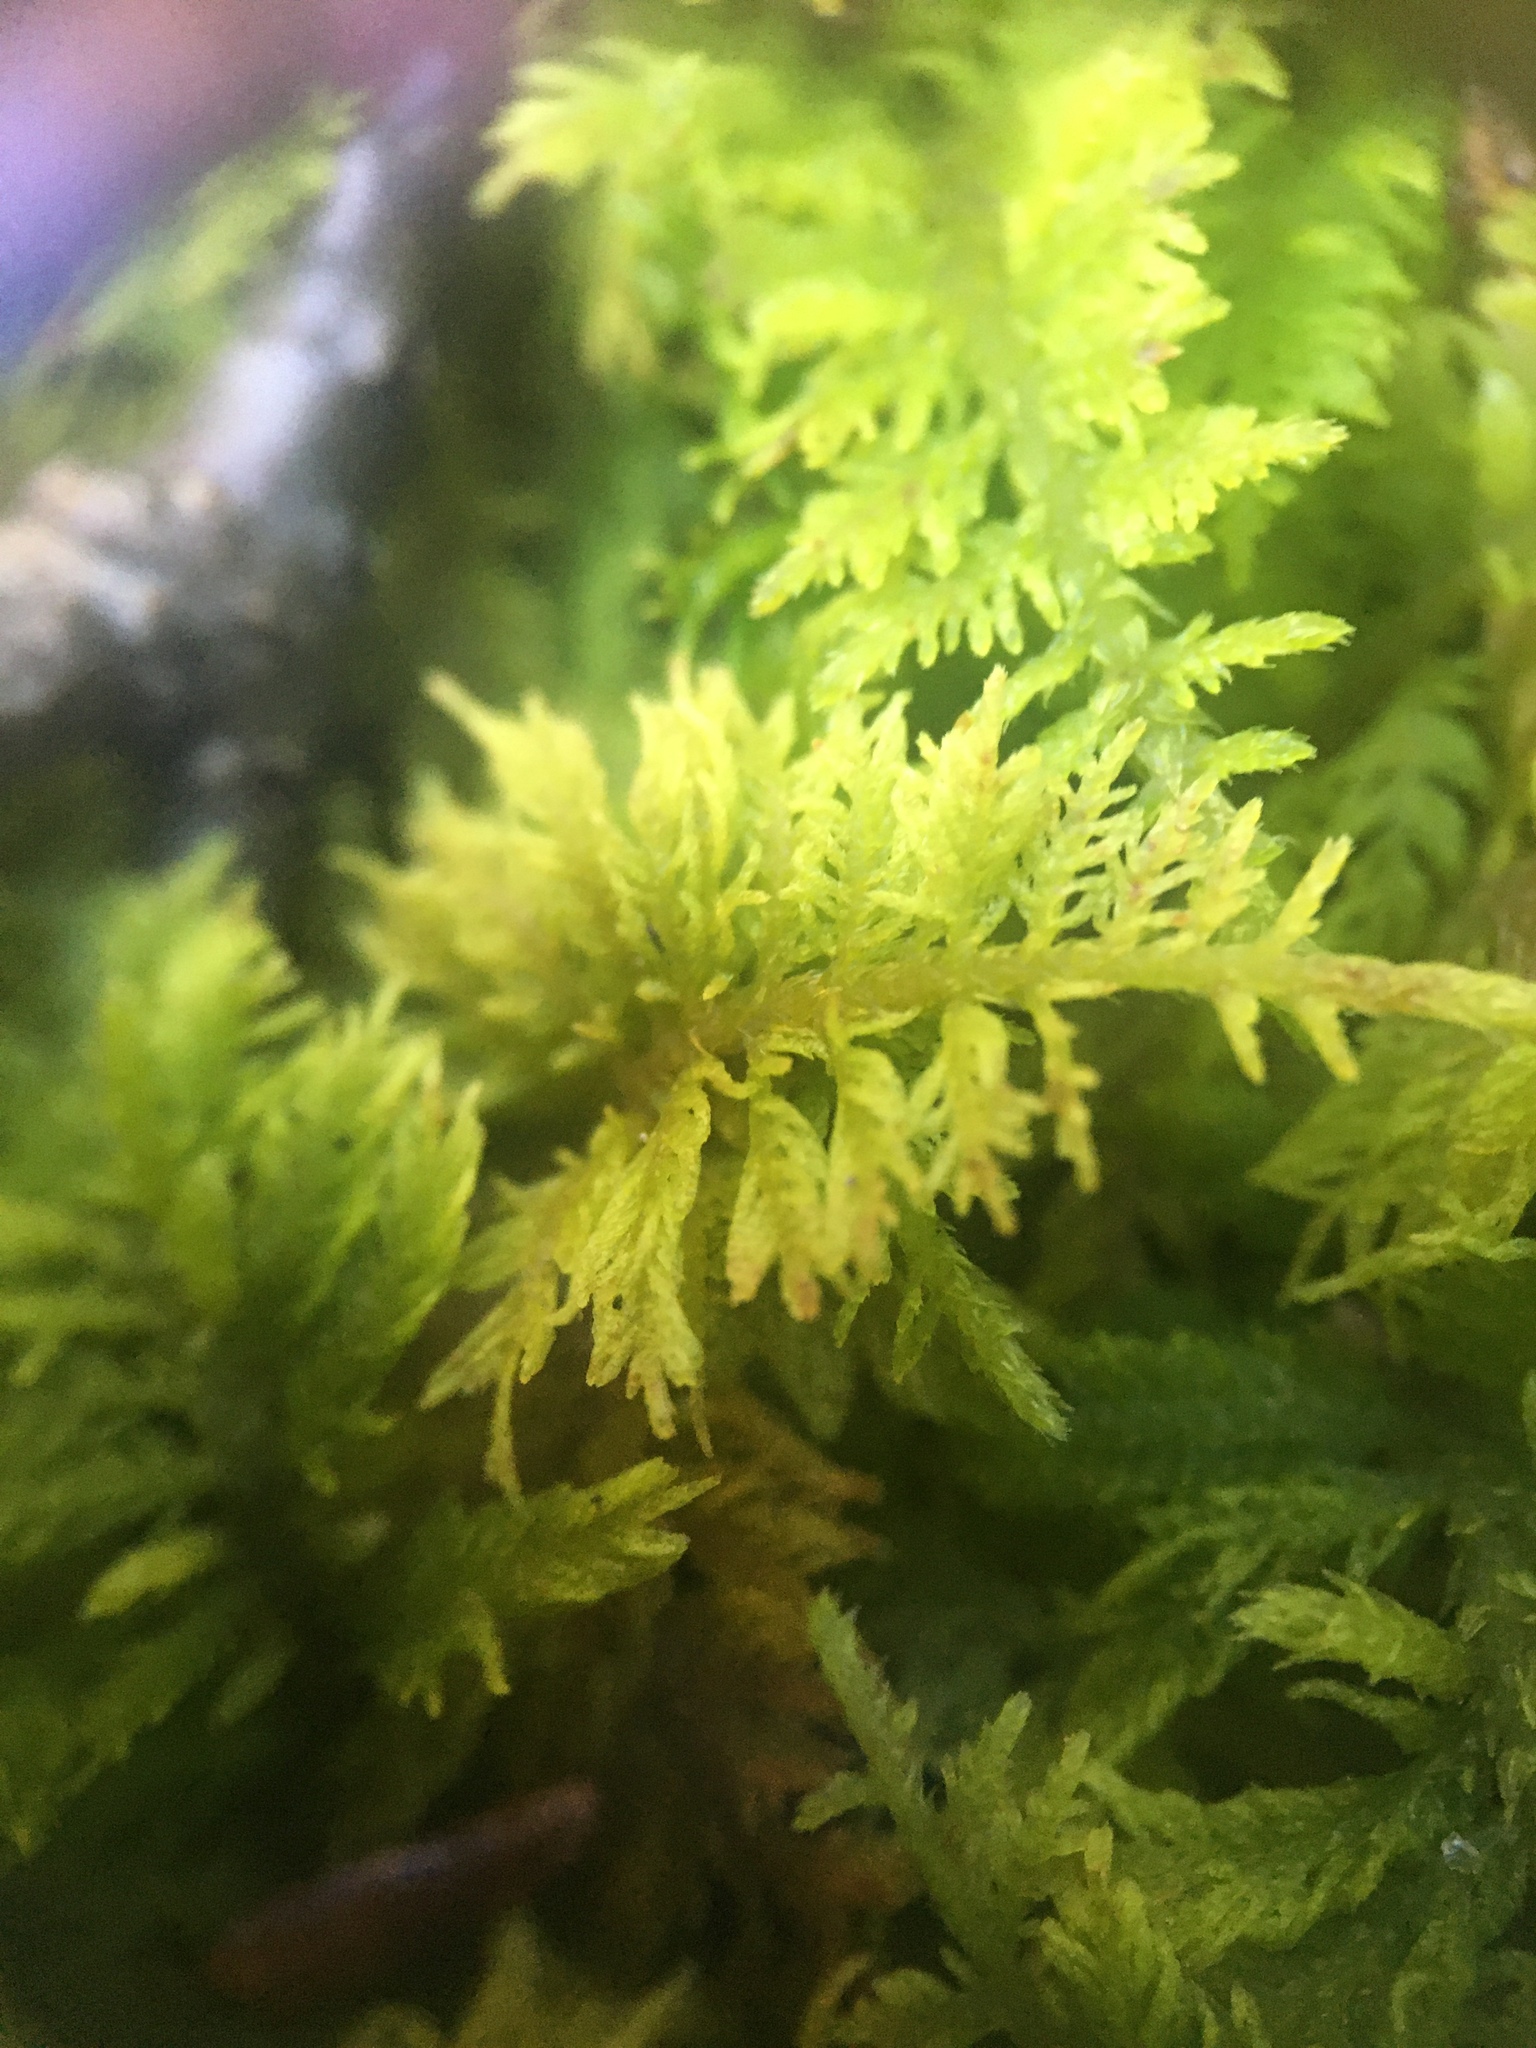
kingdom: Plantae
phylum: Bryophyta
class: Bryopsida
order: Hypnales
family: Thuidiaceae
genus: Thuidium
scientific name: Thuidium delicatulum
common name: Delicate fern moss
